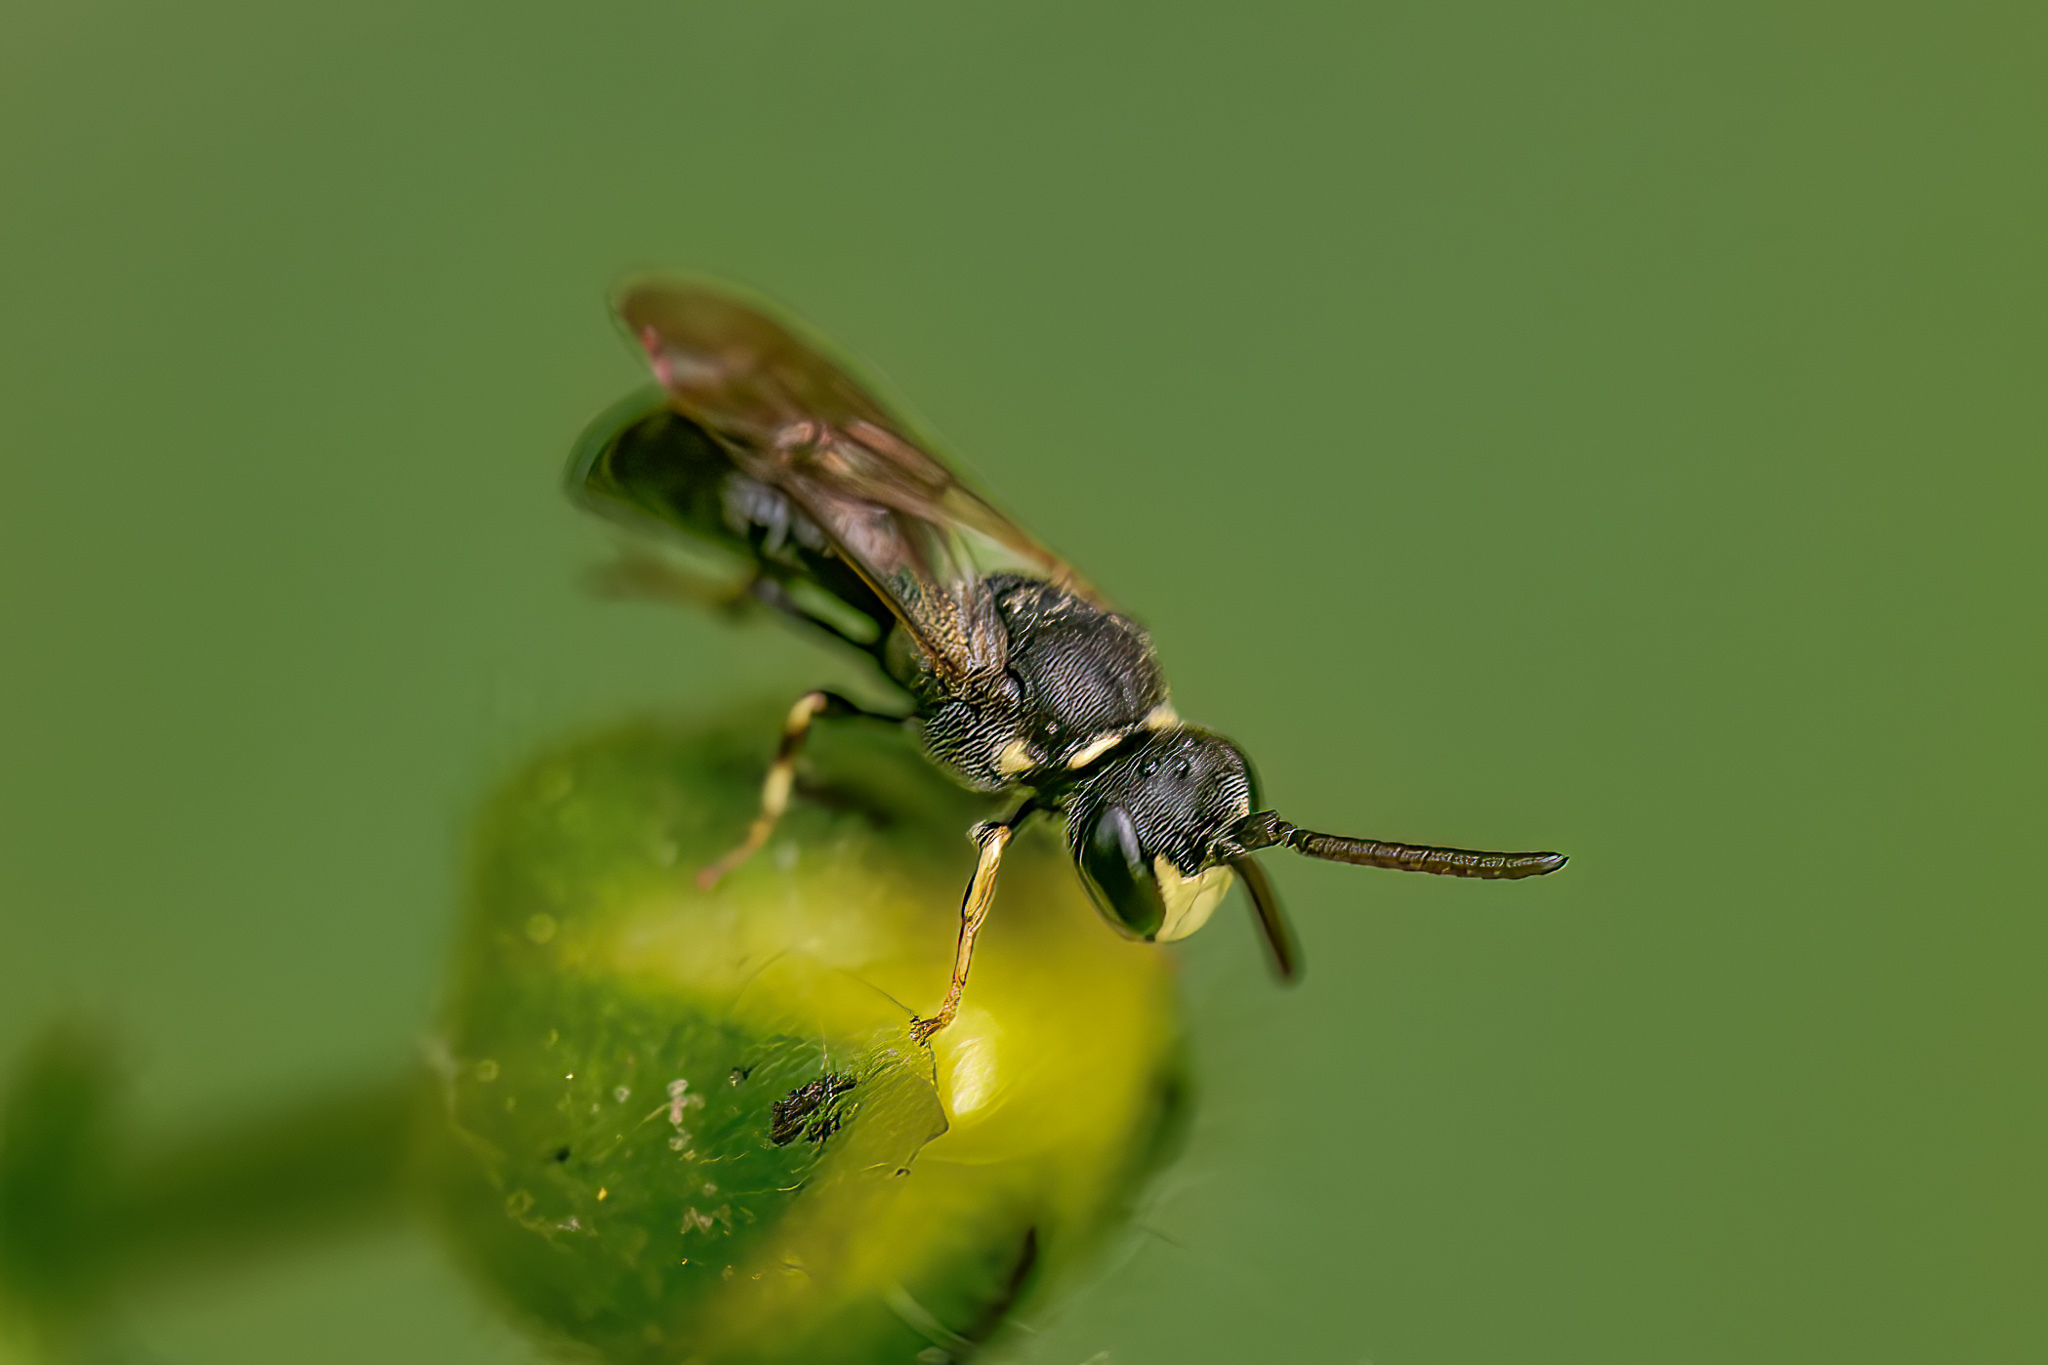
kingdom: Animalia
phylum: Arthropoda
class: Insecta
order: Hymenoptera
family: Colletidae
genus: Hylaeus
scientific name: Hylaeus modestus
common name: Yellow-faced bee
